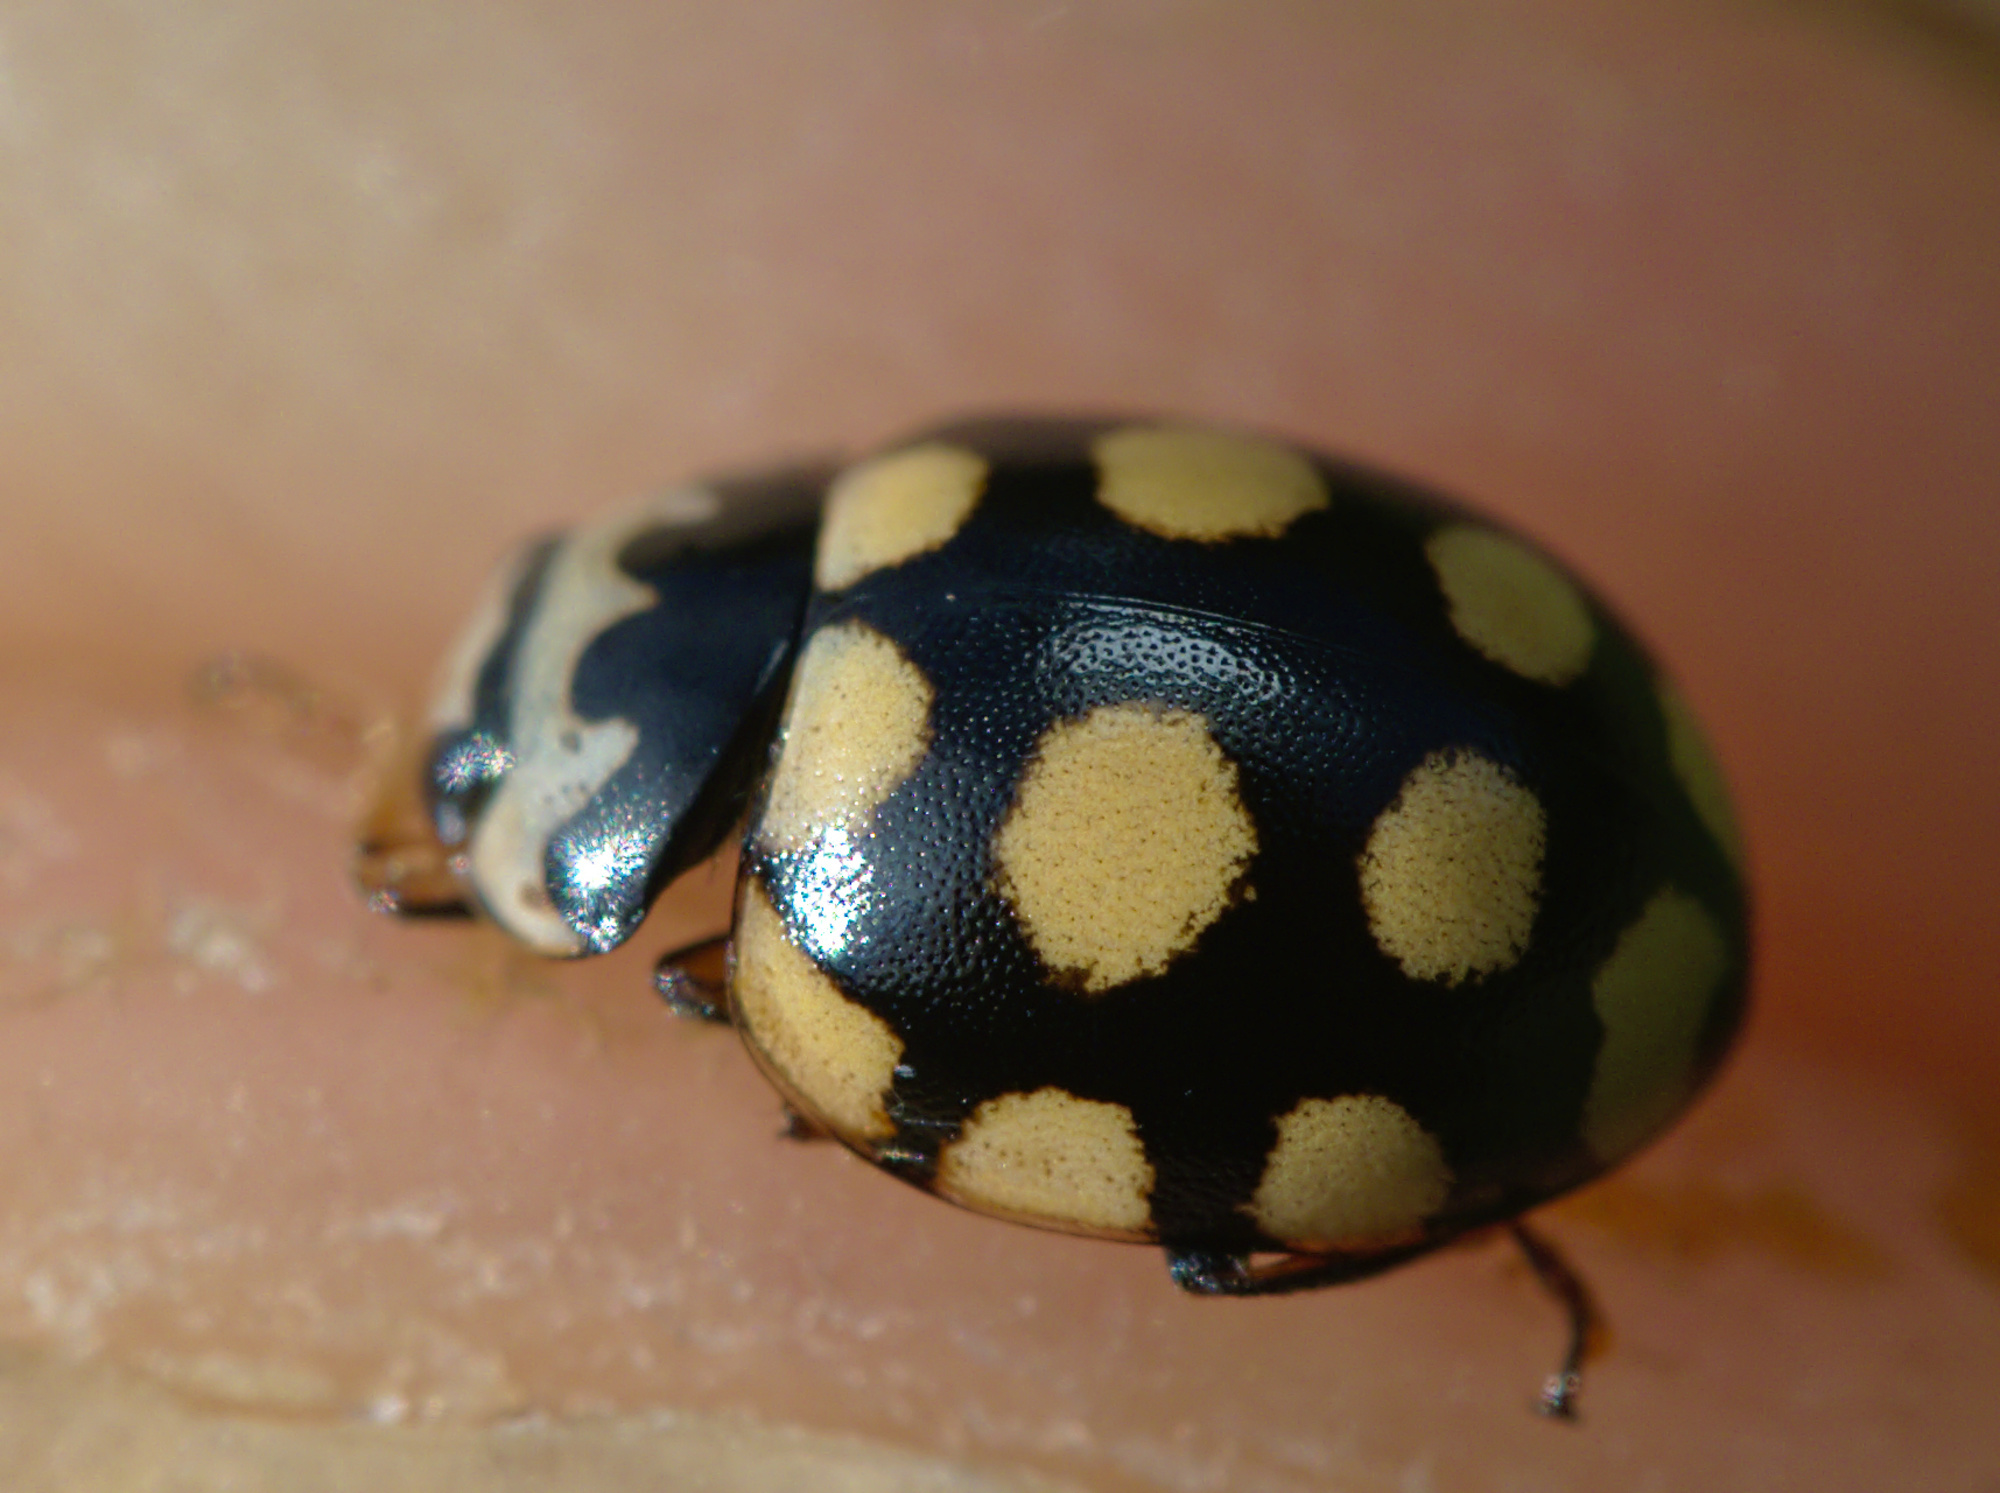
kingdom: Animalia
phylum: Arthropoda
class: Insecta
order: Coleoptera
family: Coccinellidae
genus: Coccinula
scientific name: Coccinula quatuordecimpustulata
